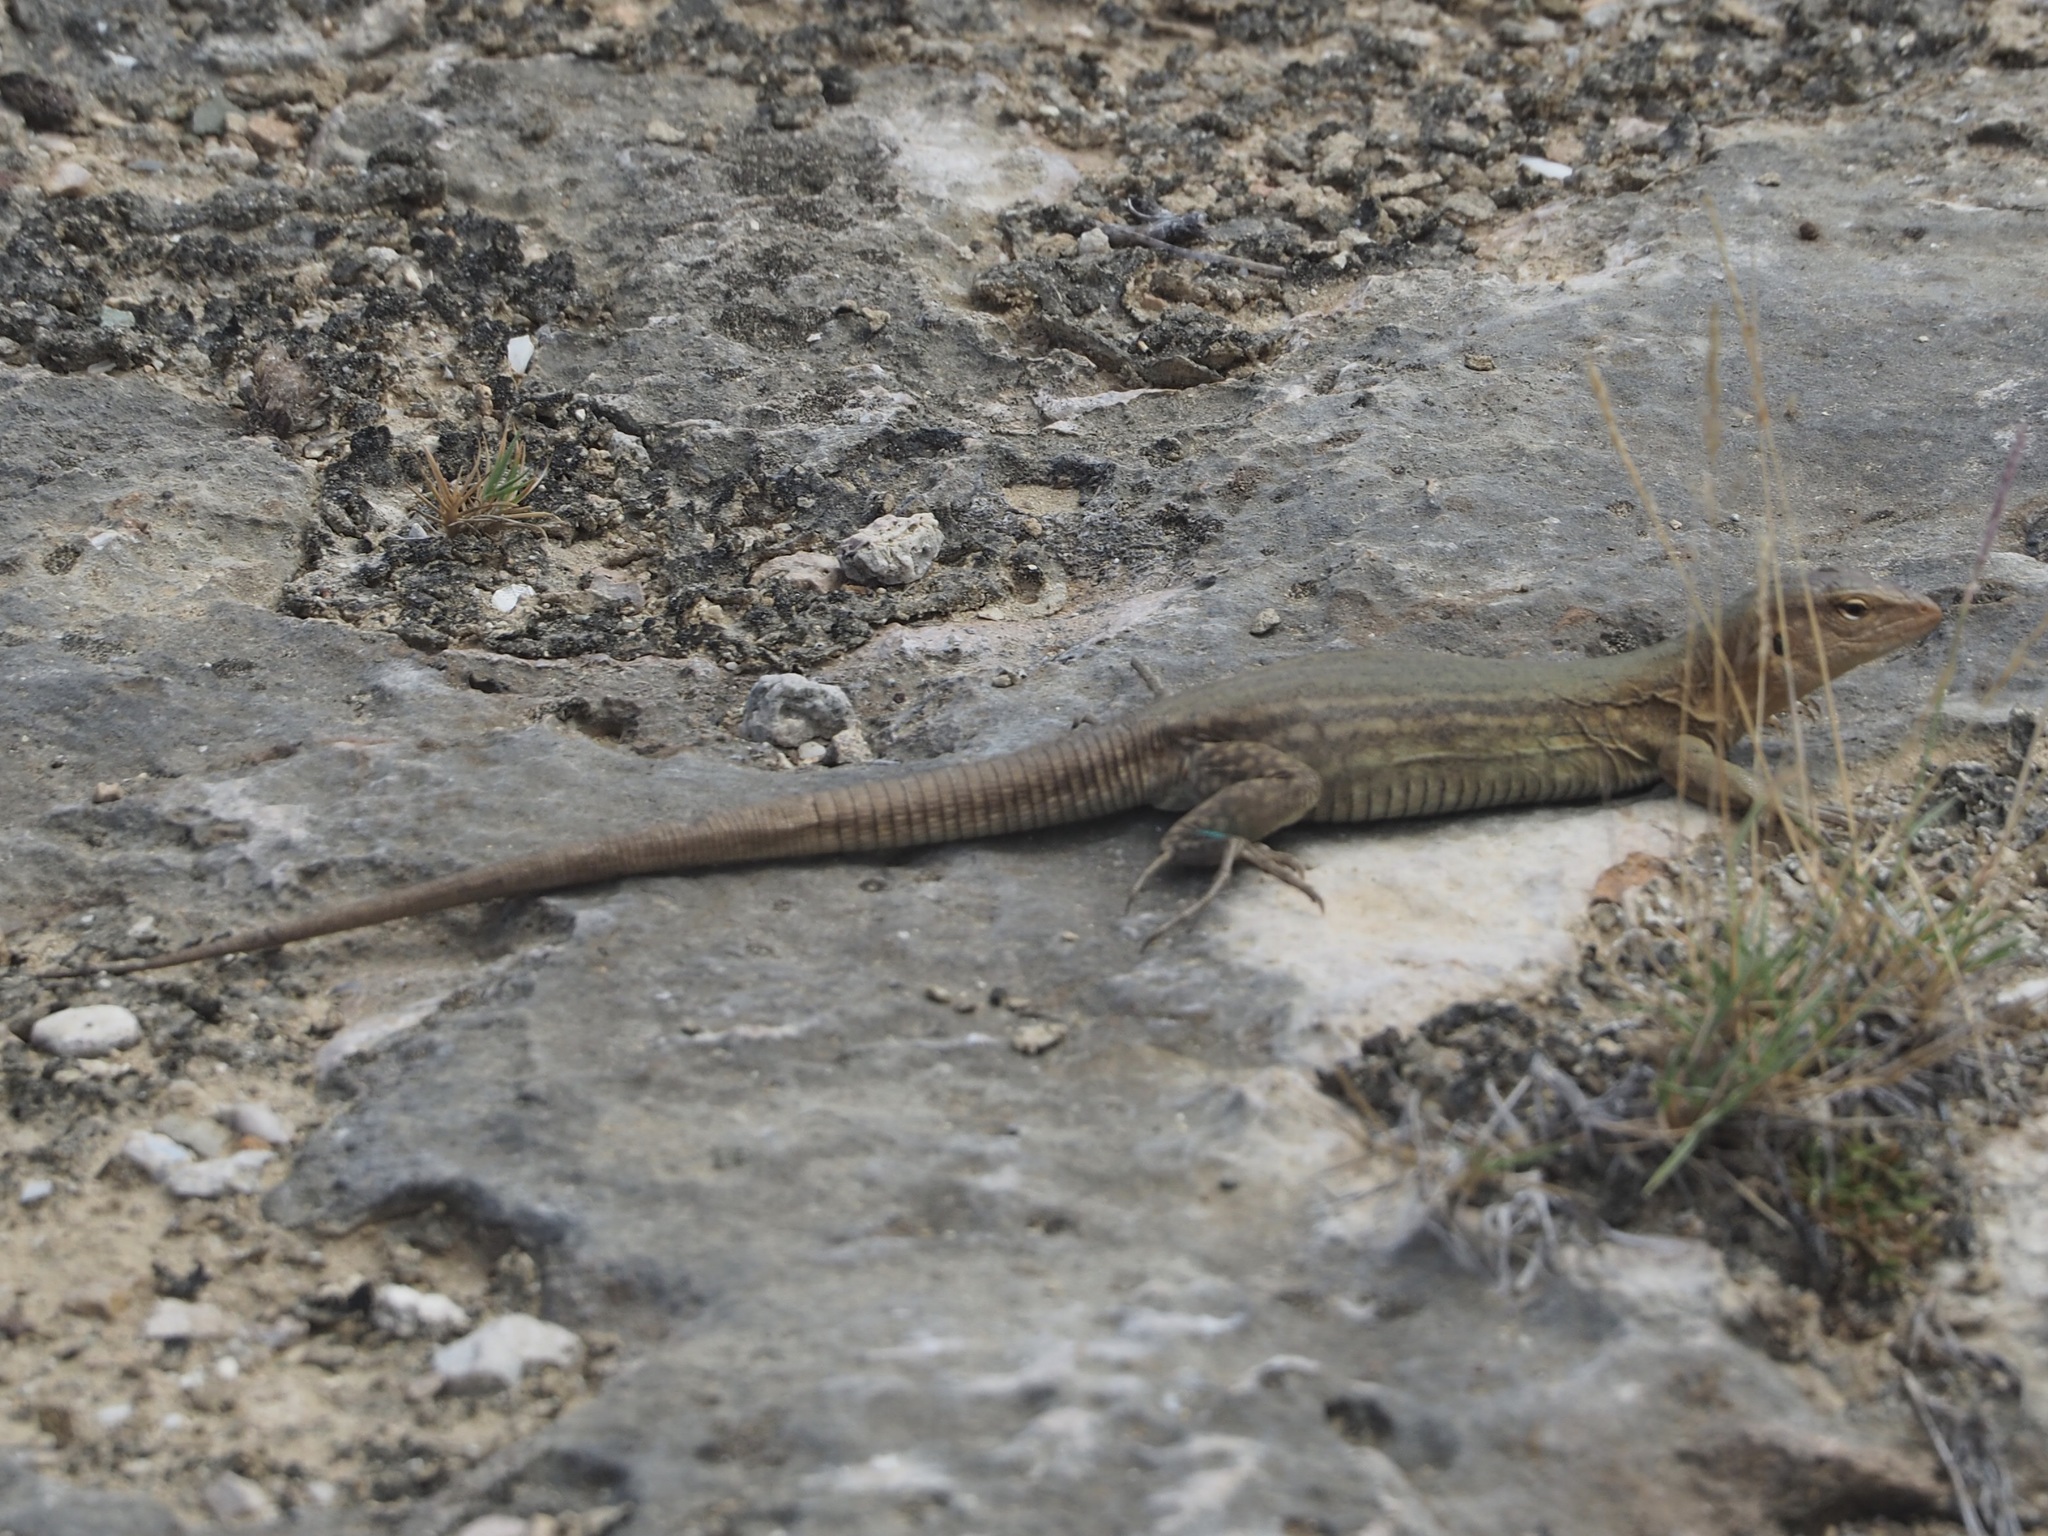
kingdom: Animalia
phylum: Chordata
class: Squamata
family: Teiidae
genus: Cnemidophorus
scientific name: Cnemidophorus ruthveni
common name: Bonaire whiptail
